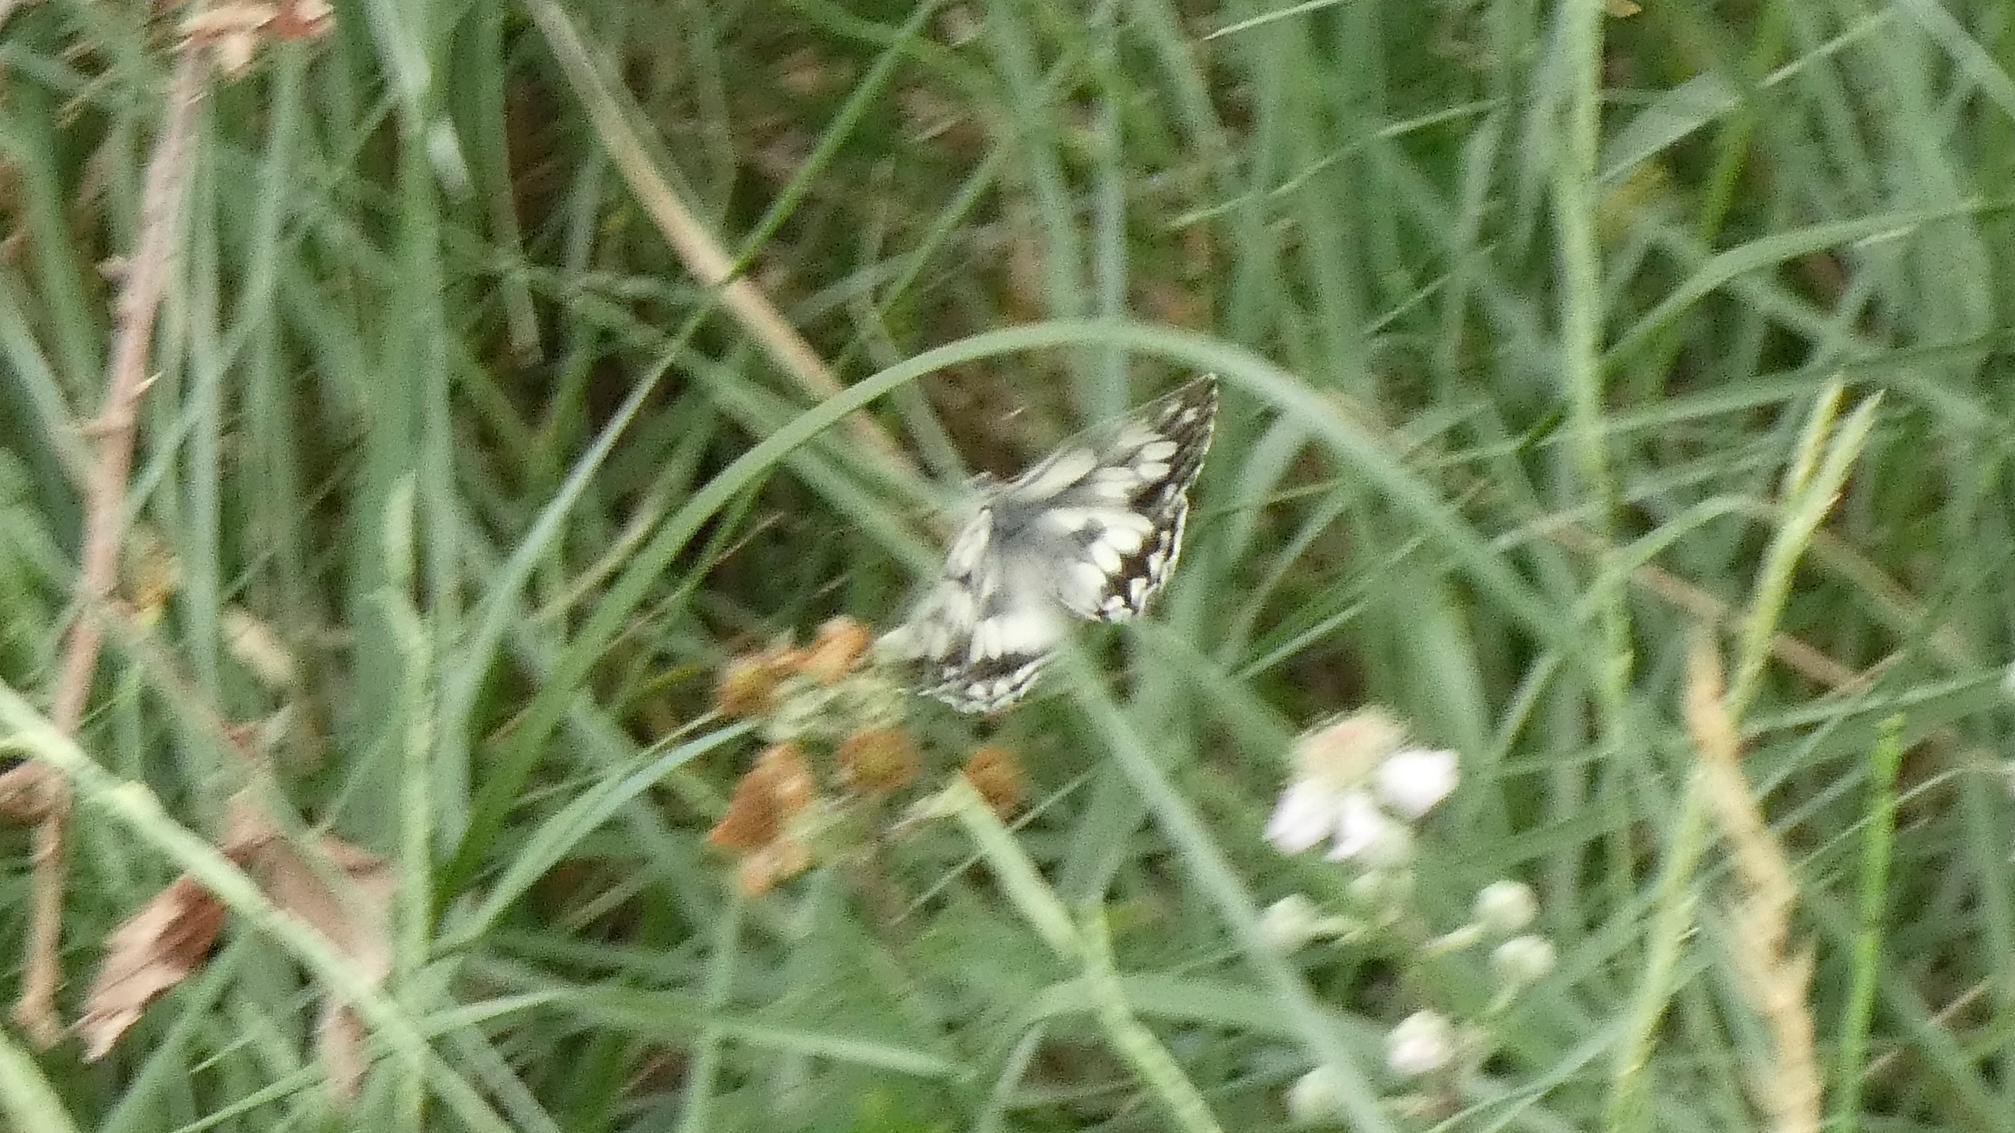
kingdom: Animalia
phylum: Arthropoda
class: Insecta
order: Lepidoptera
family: Nymphalidae
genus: Melanargia
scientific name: Melanargia galathea
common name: Marbled white
